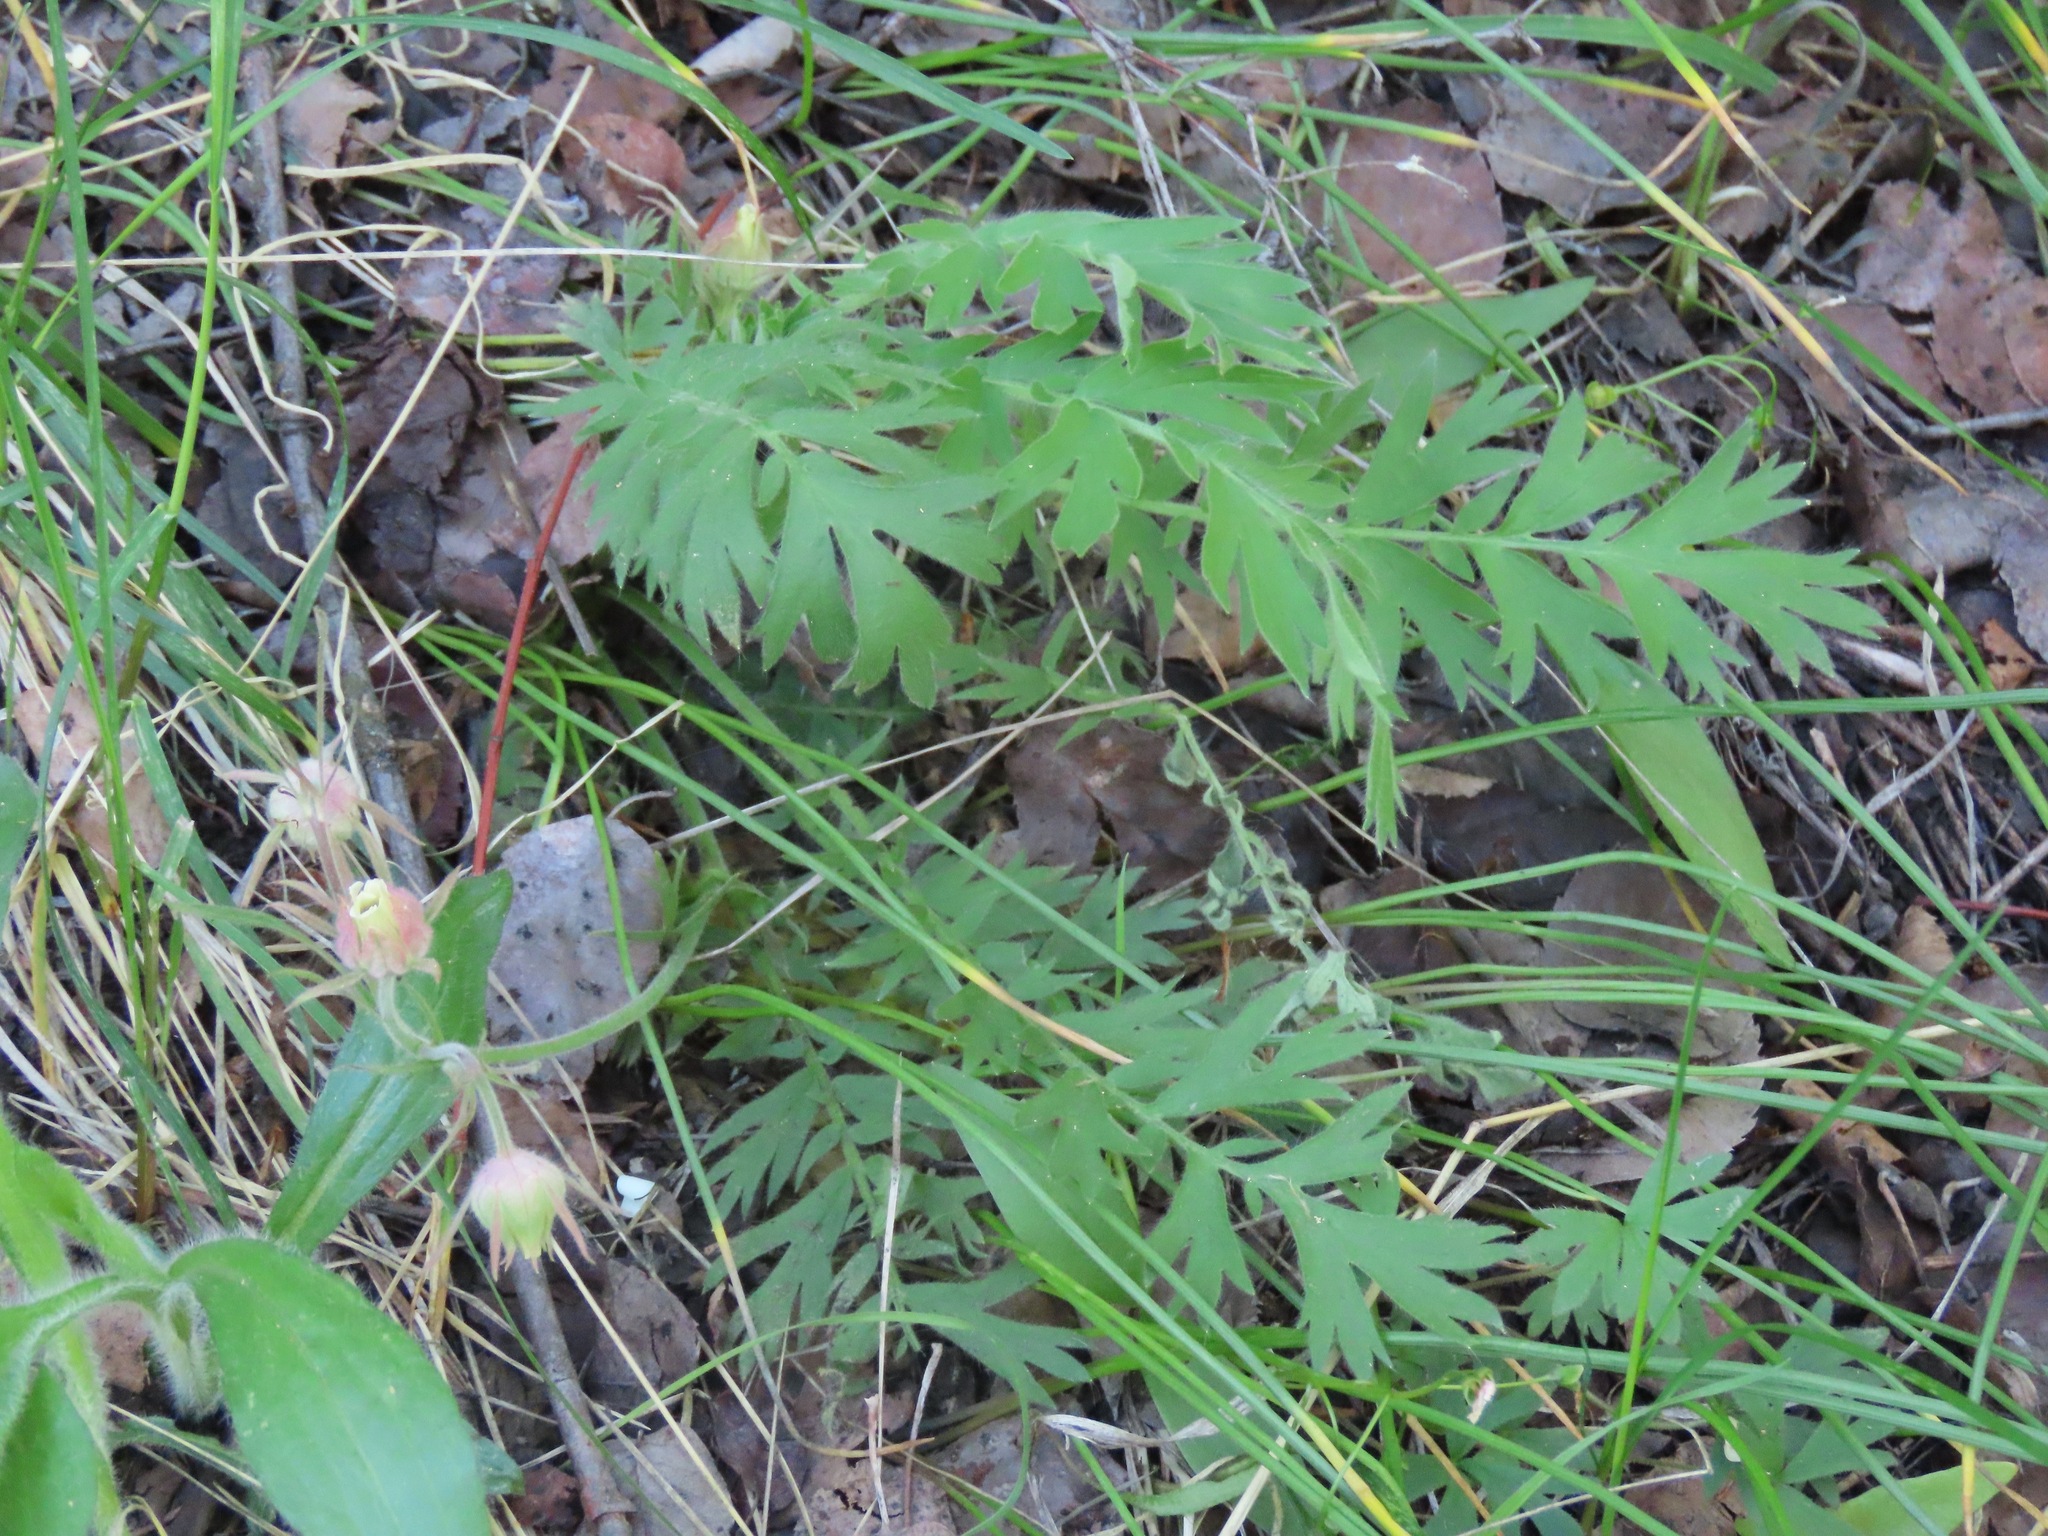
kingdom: Plantae
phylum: Tracheophyta
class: Magnoliopsida
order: Rosales
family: Rosaceae
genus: Geum
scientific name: Geum triflorum
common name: Old man's whiskers
